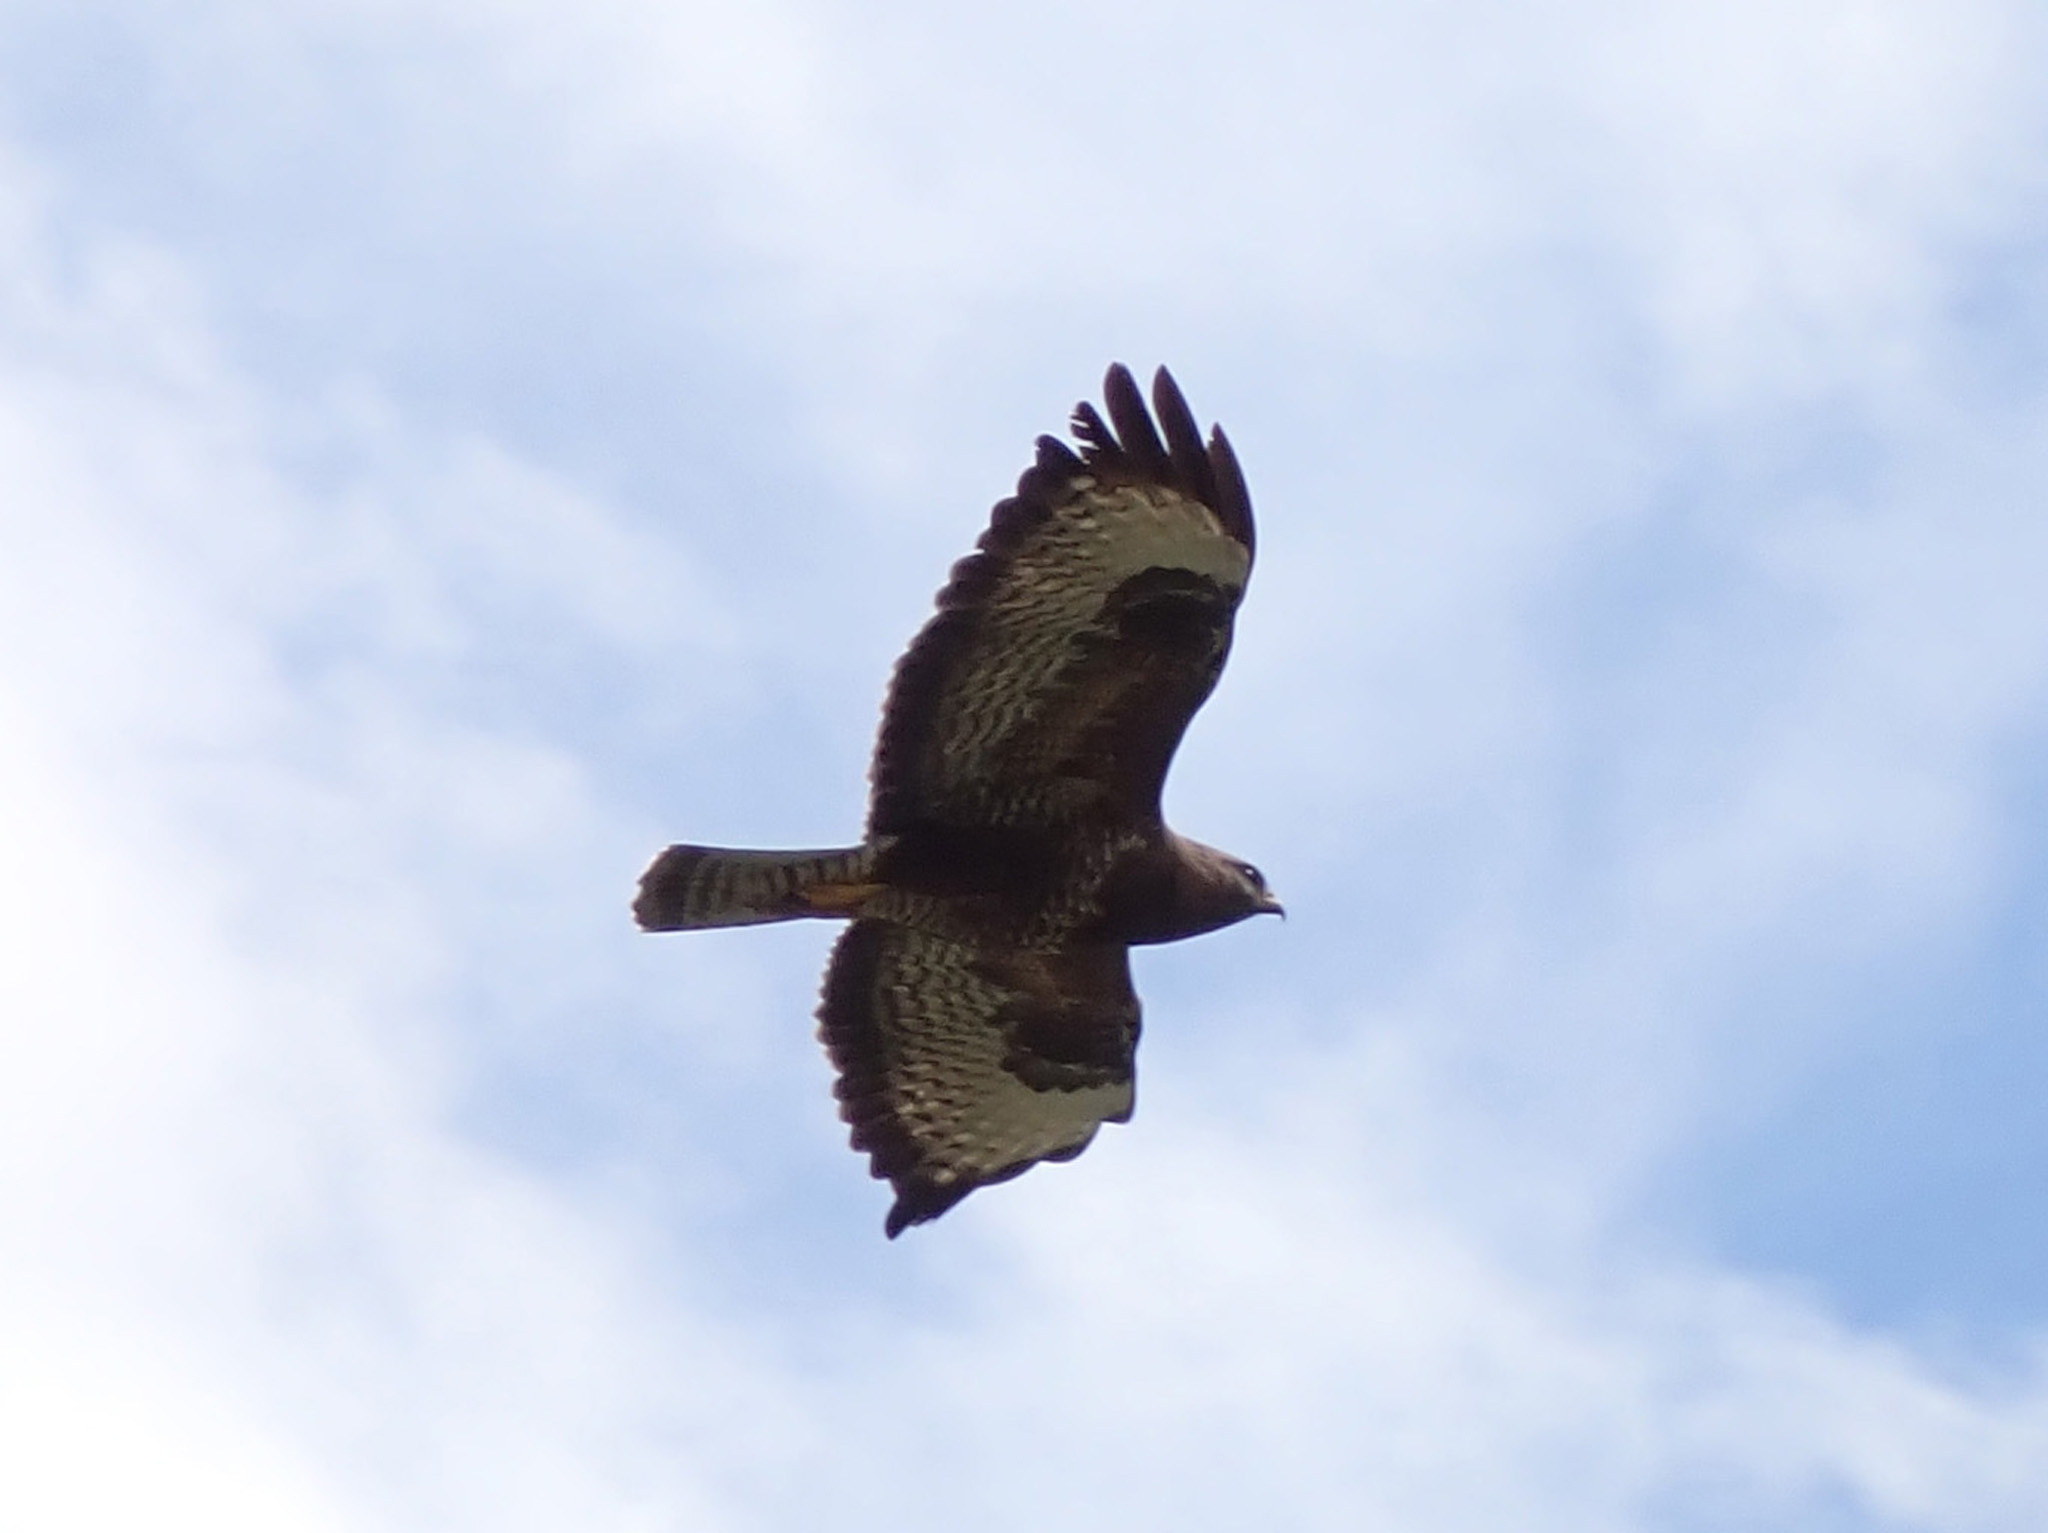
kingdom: Animalia
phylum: Chordata
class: Aves
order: Accipitriformes
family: Accipitridae
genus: Buteo
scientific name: Buteo buteo
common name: Common buzzard
